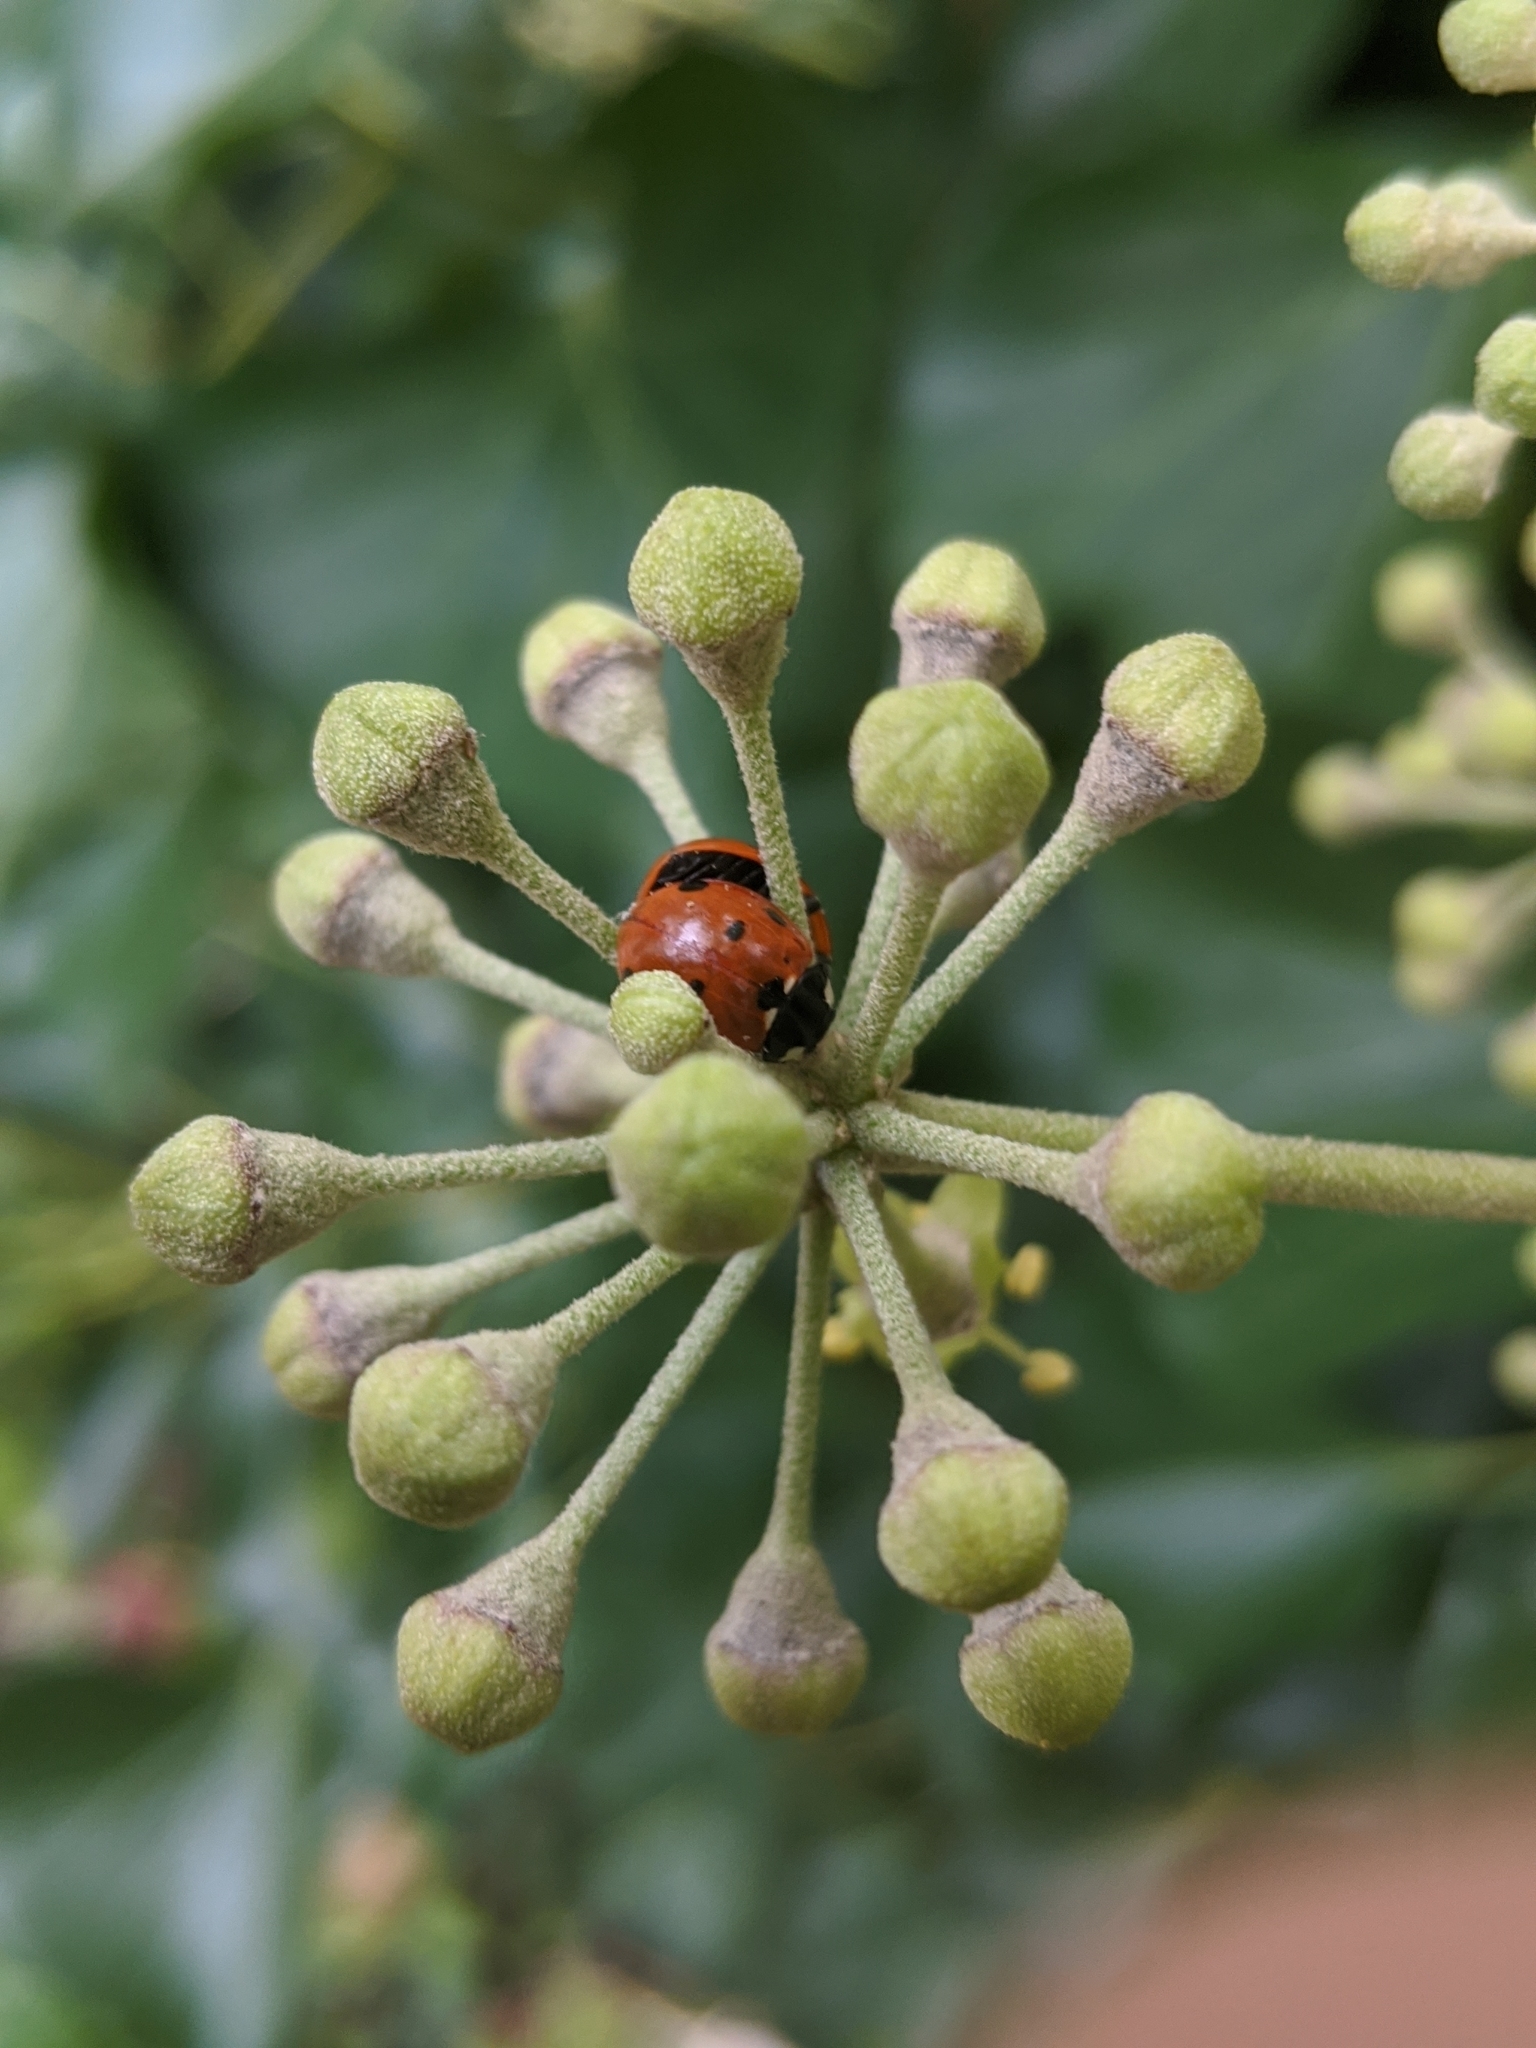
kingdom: Animalia
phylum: Arthropoda
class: Insecta
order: Coleoptera
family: Coccinellidae
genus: Coccinella
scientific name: Coccinella septempunctata
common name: Sevenspotted lady beetle
